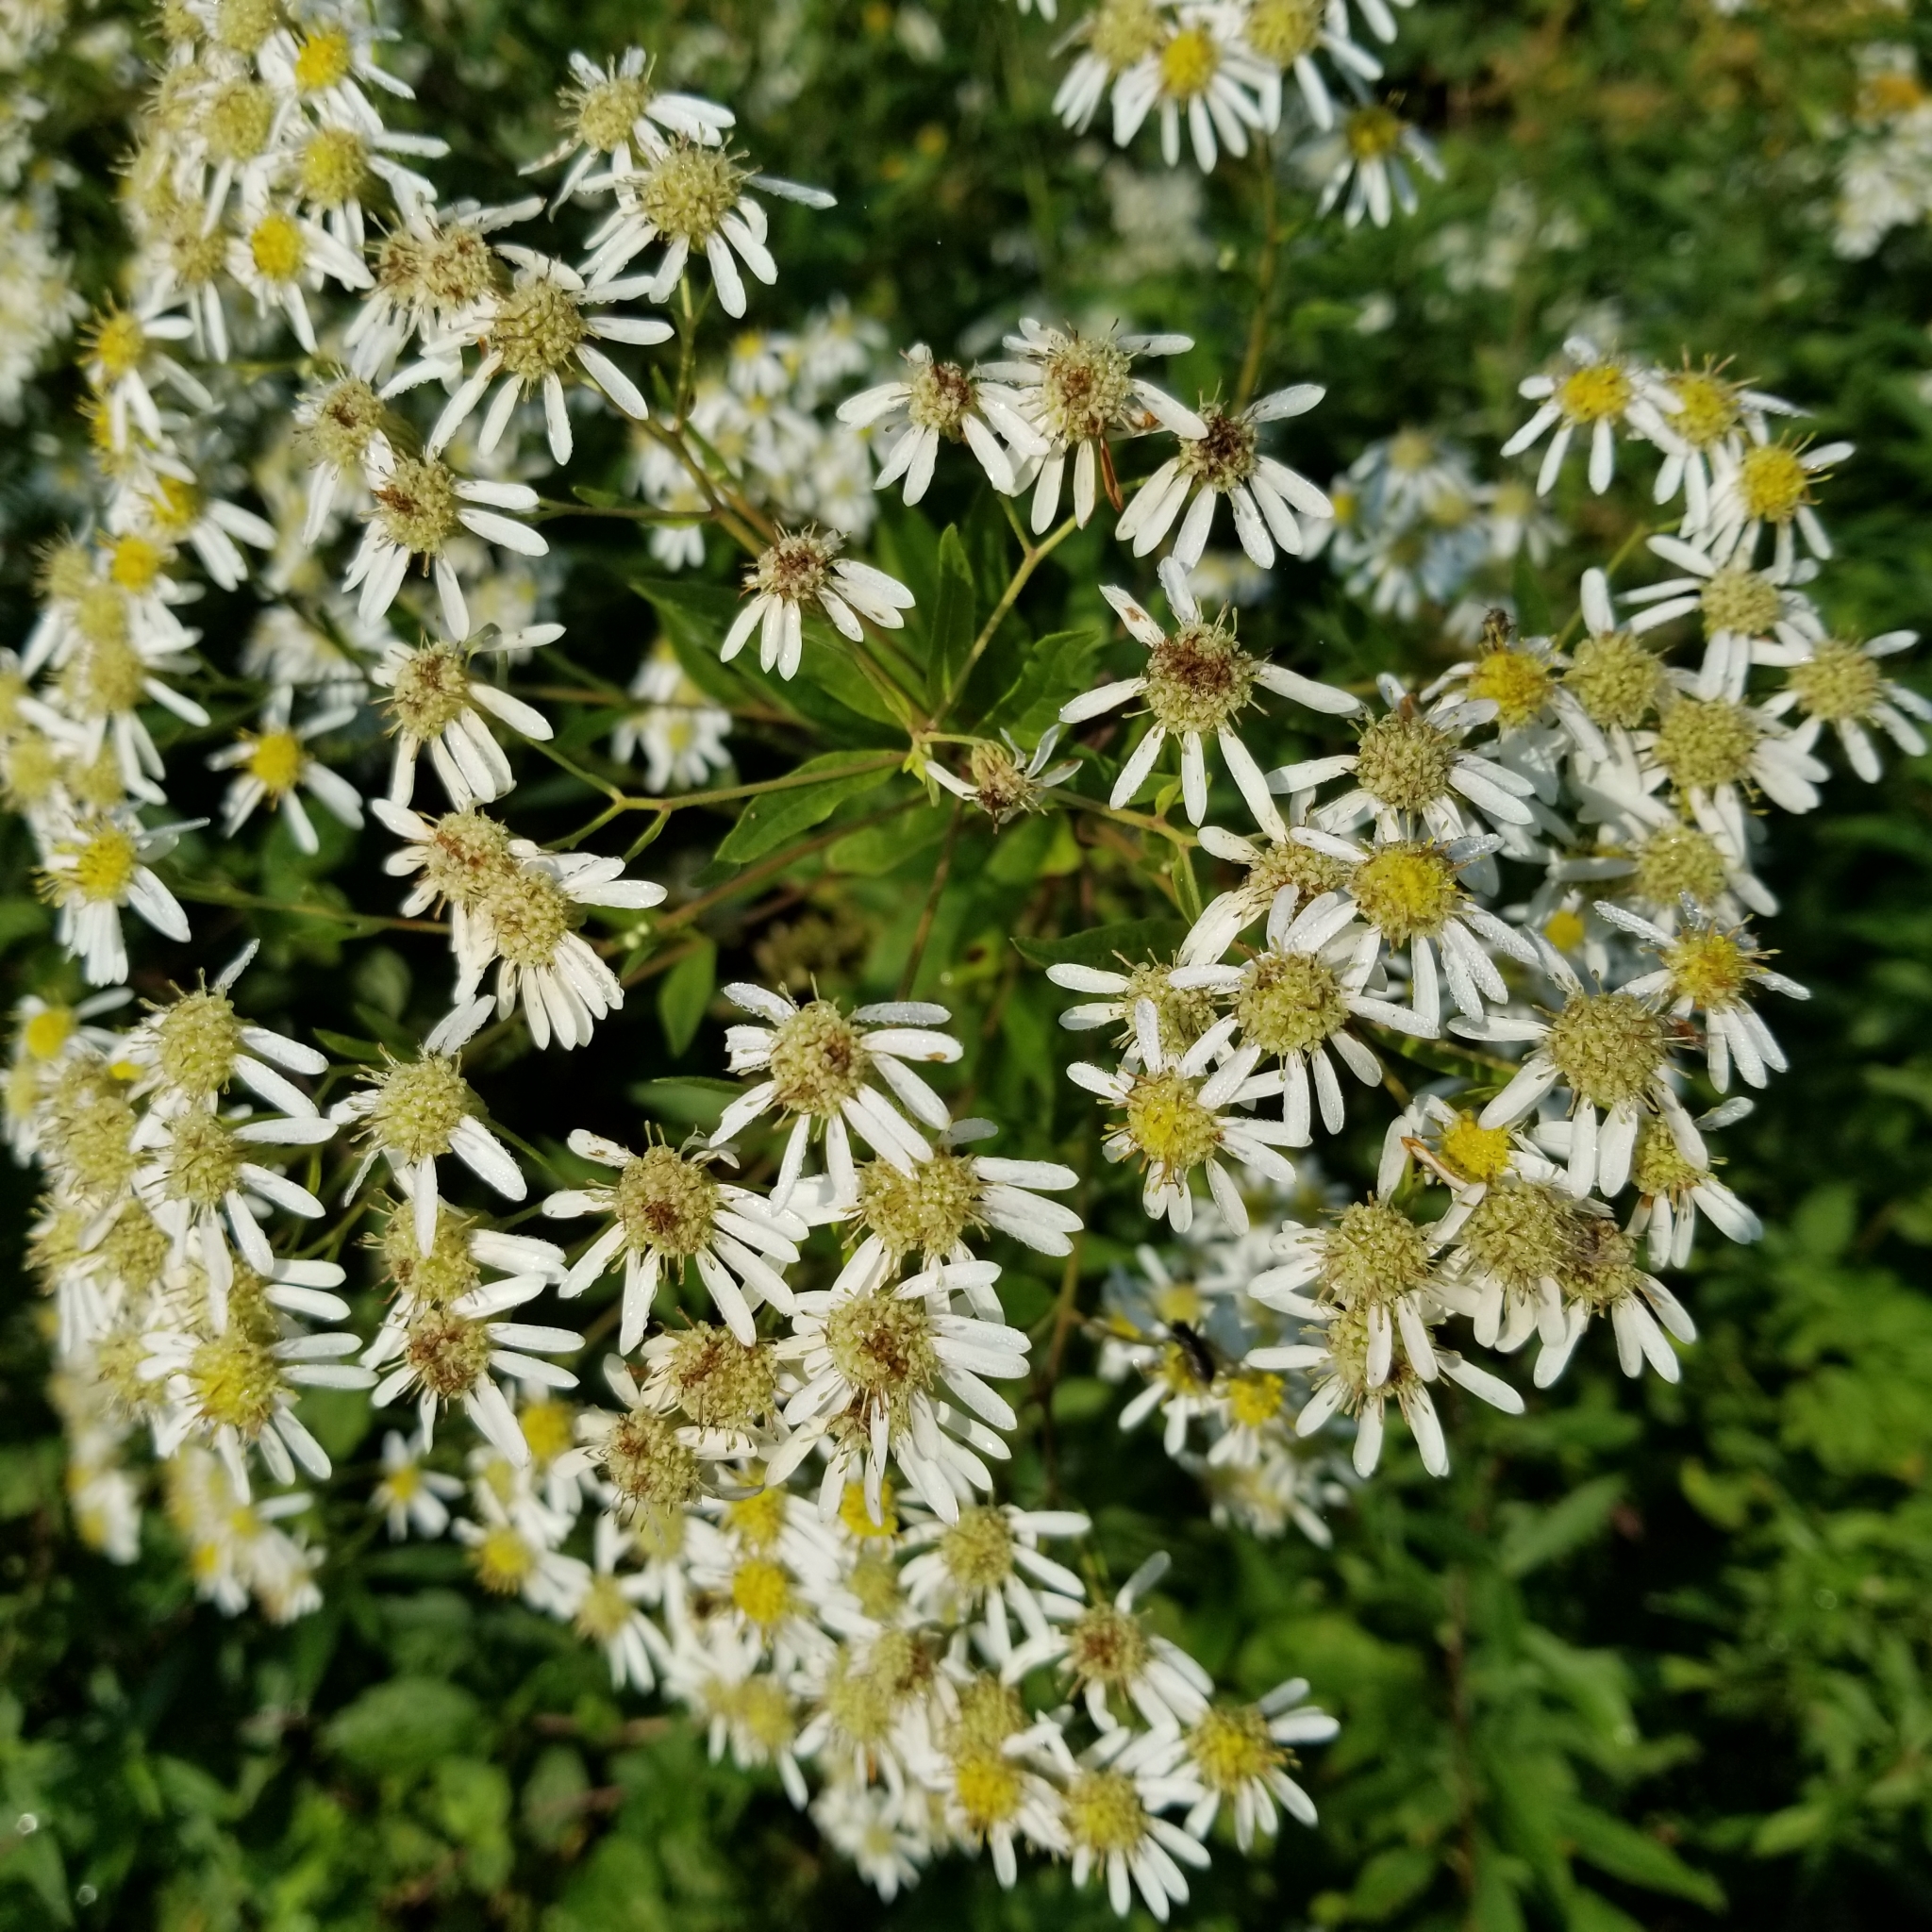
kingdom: Plantae
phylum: Tracheophyta
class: Magnoliopsida
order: Asterales
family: Asteraceae
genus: Doellingeria
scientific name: Doellingeria umbellata
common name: Flat-top white aster
